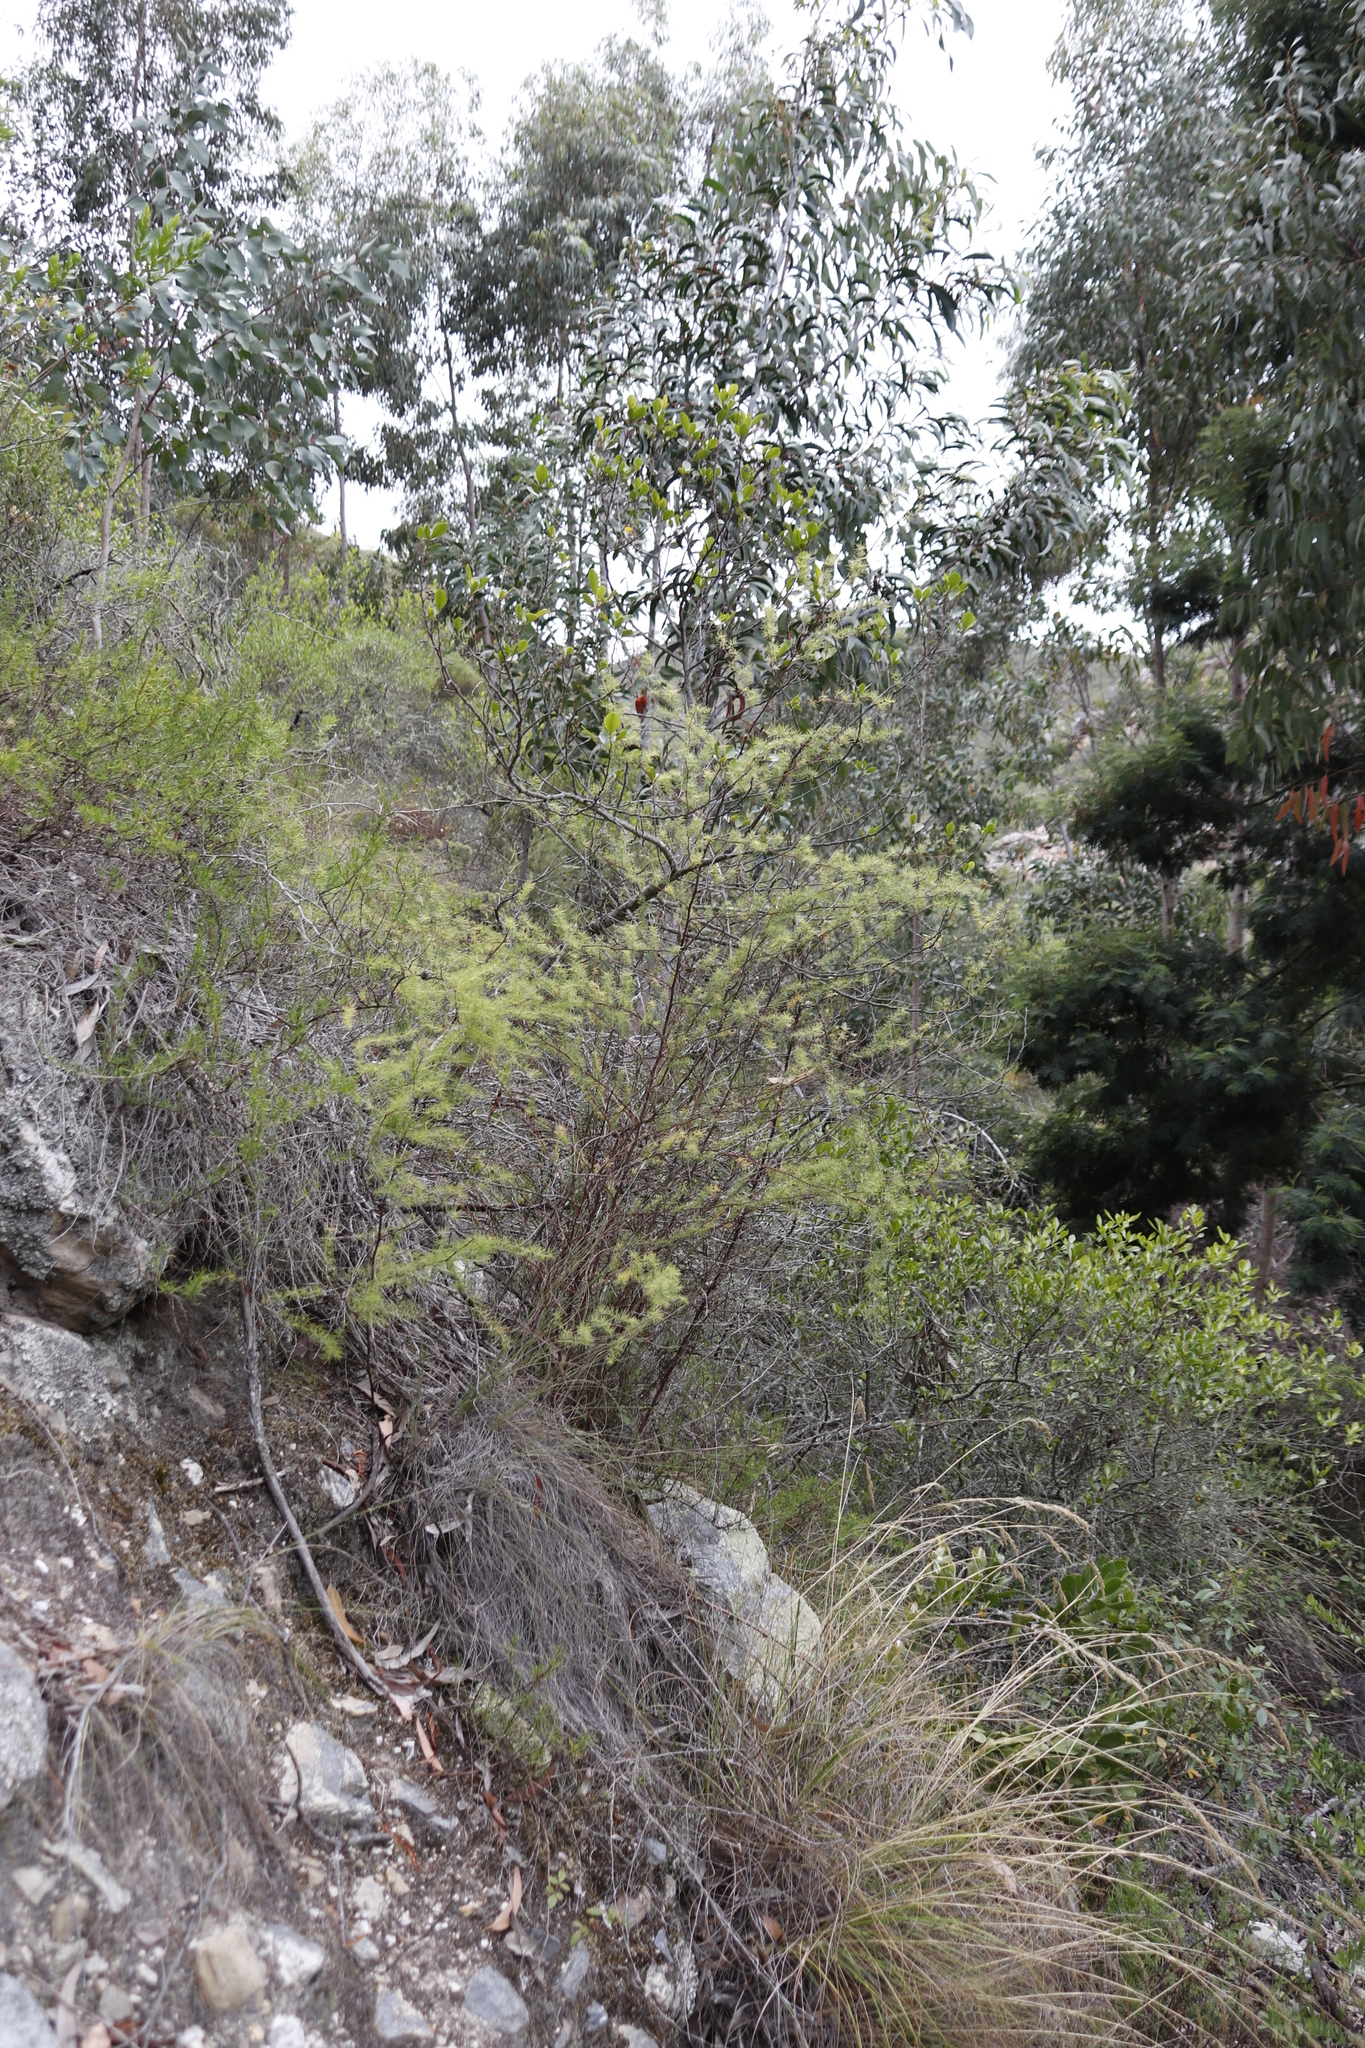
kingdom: Plantae
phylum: Tracheophyta
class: Liliopsida
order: Asparagales
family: Asparagaceae
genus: Asparagus
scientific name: Asparagus rubicundus
